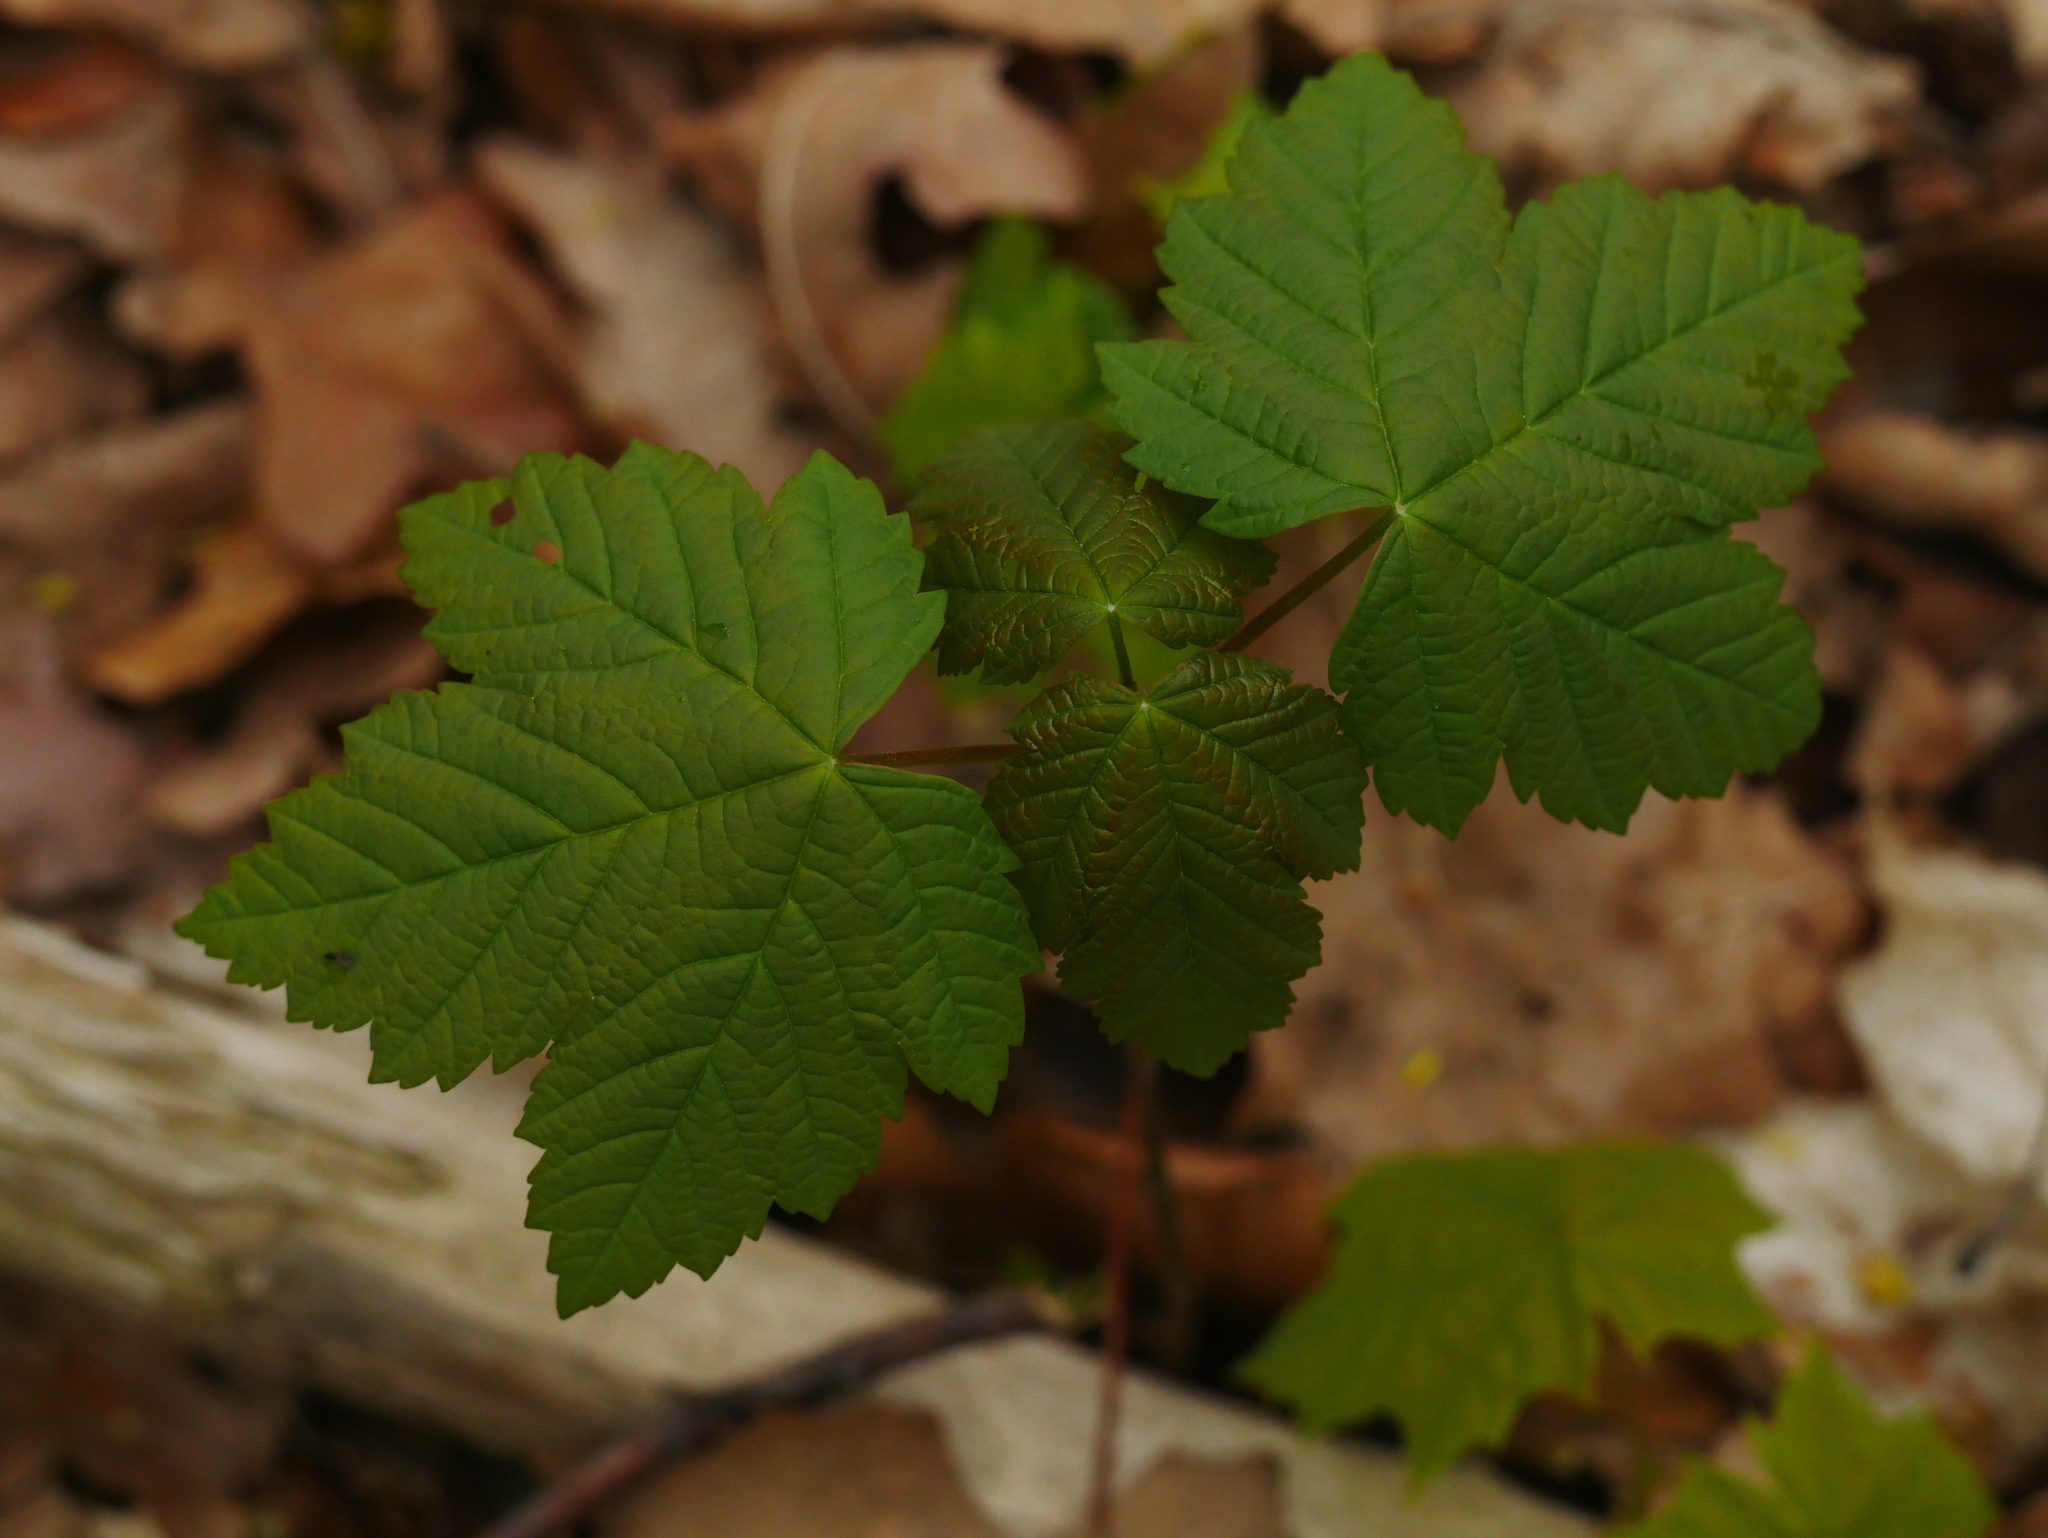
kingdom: Plantae
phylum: Tracheophyta
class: Magnoliopsida
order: Sapindales
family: Sapindaceae
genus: Acer
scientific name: Acer pseudoplatanus
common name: Sycamore
